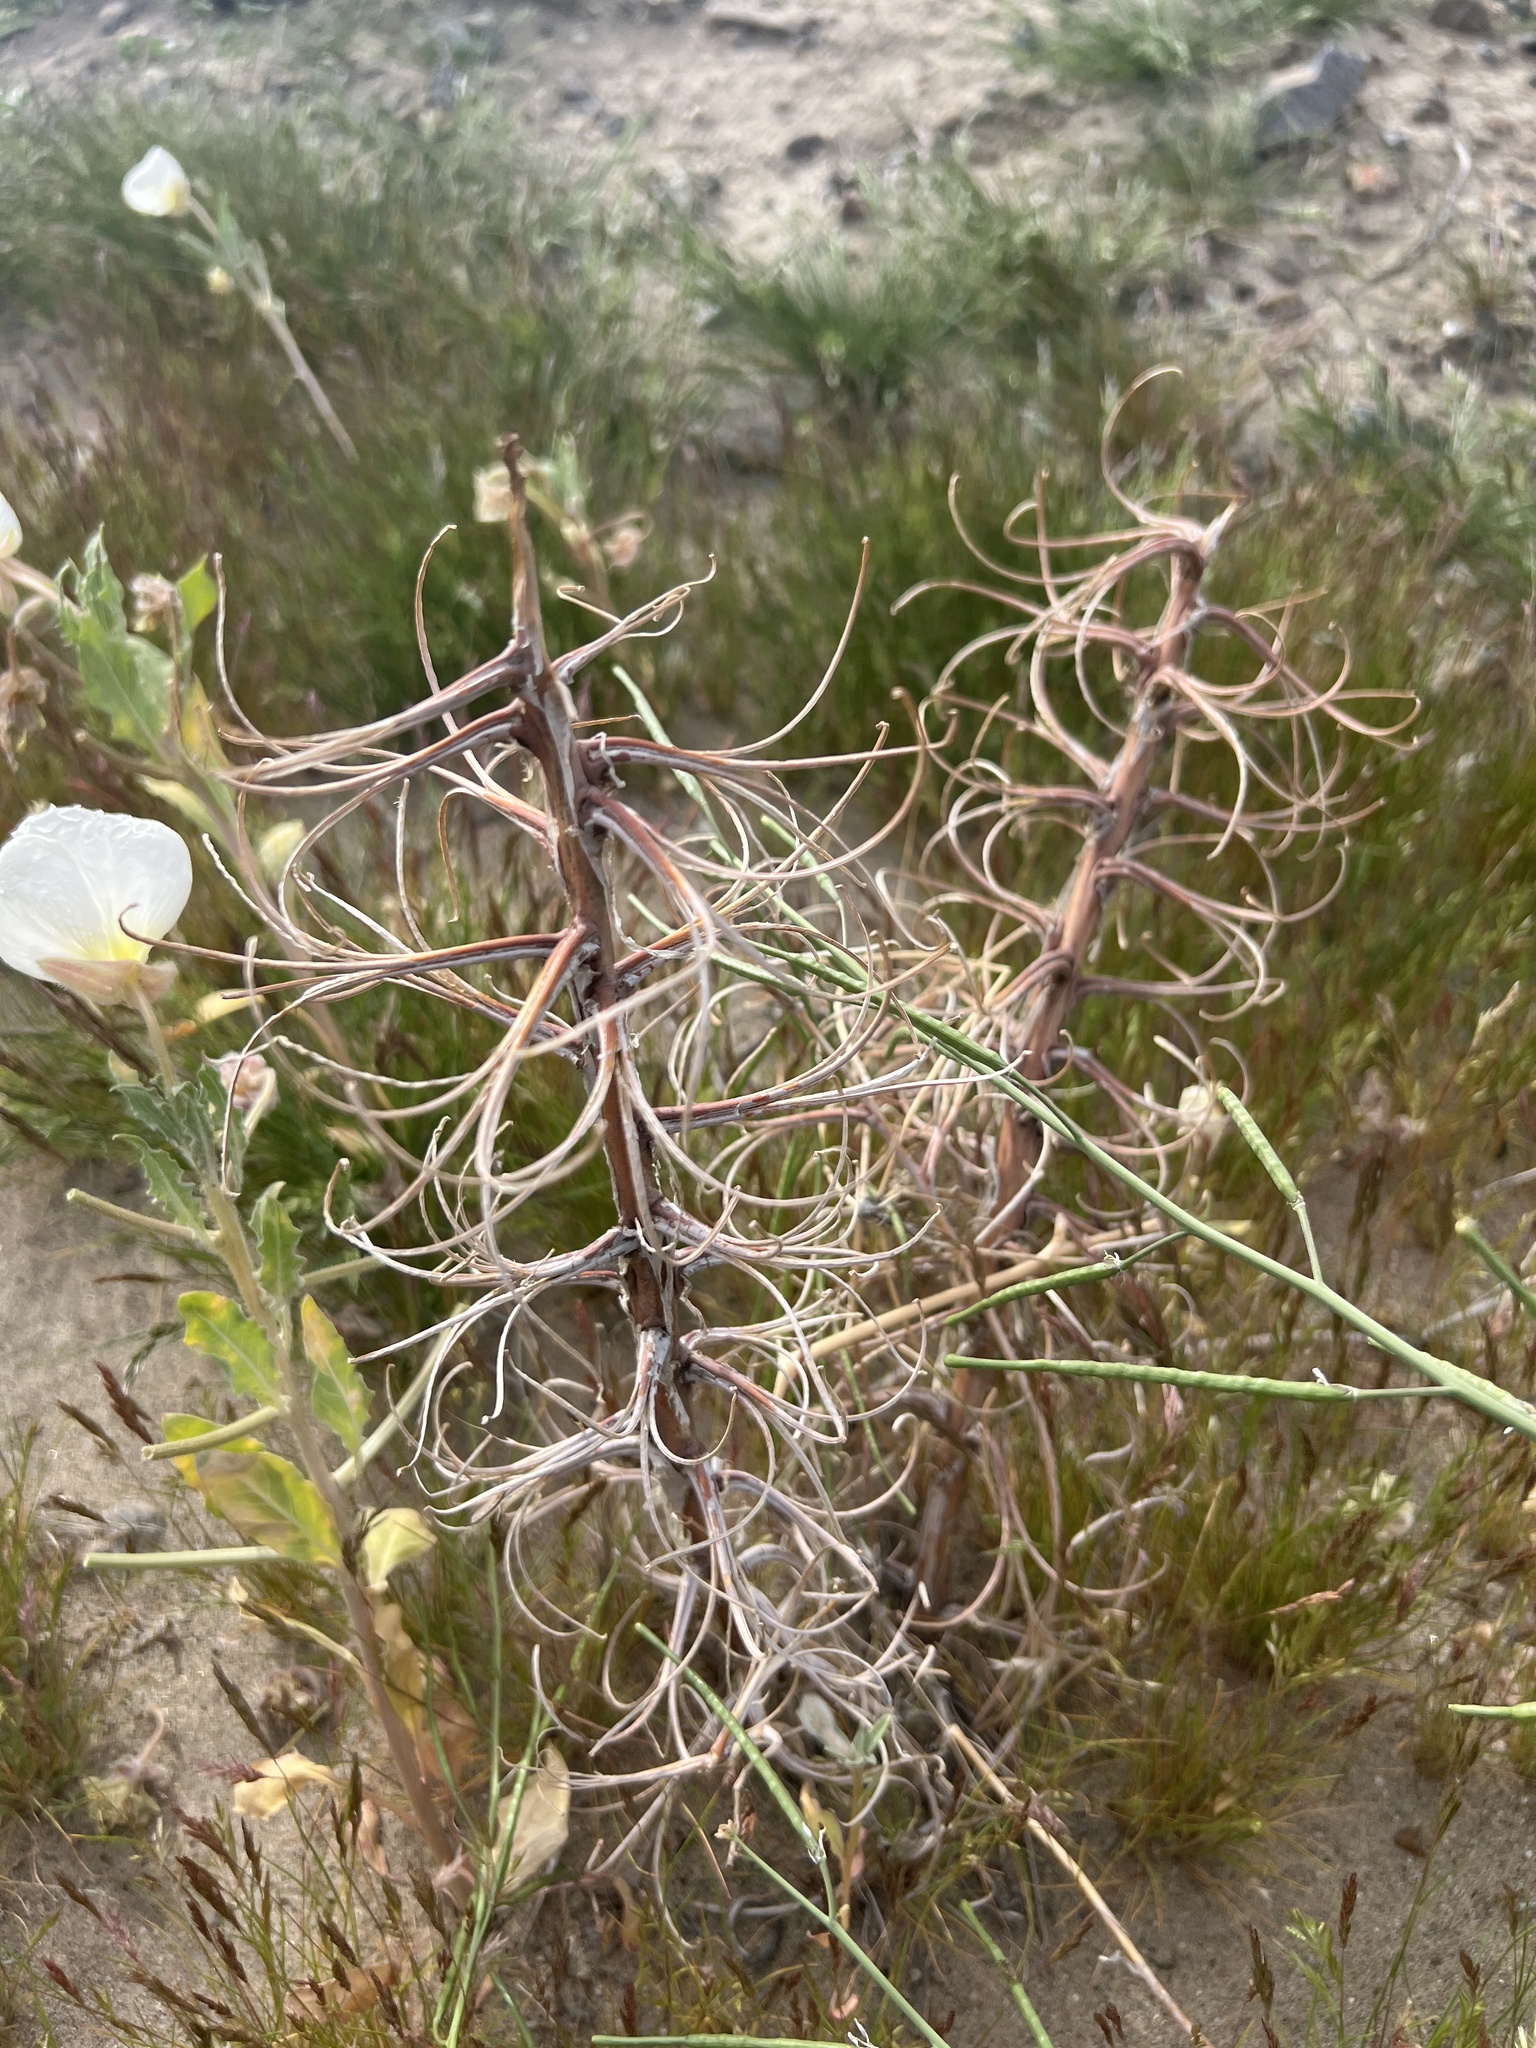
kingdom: Plantae
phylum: Tracheophyta
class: Magnoliopsida
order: Myrtales
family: Onagraceae
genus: Oenothera
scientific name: Oenothera deltoides
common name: Basket evening-primrose
